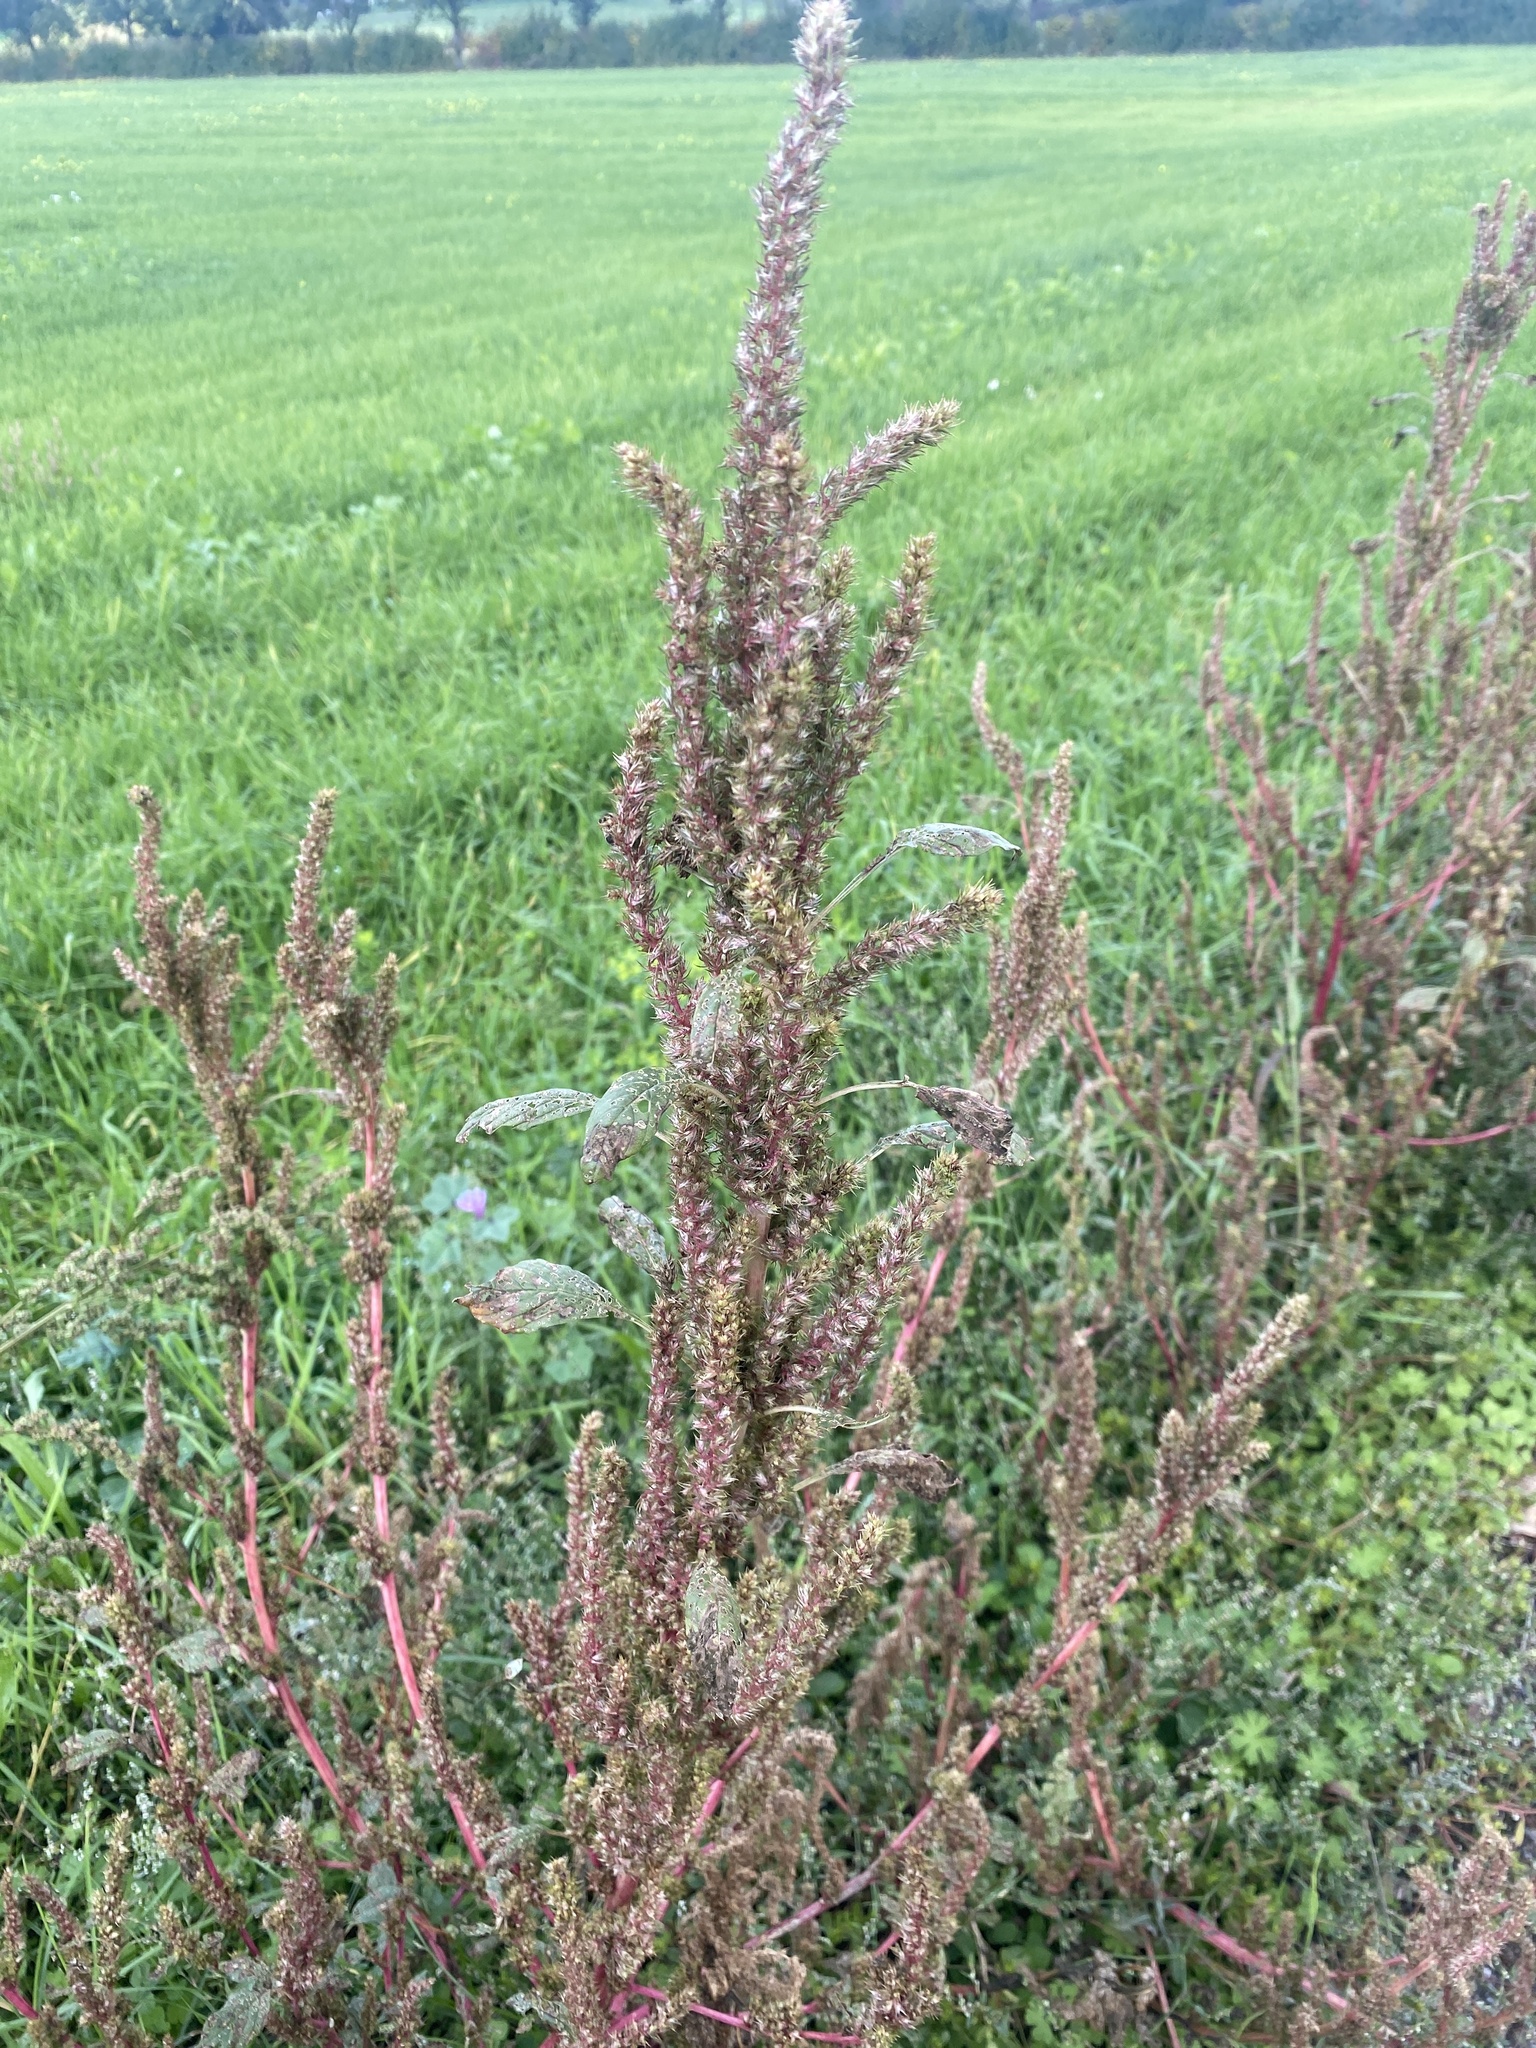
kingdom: Plantae
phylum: Tracheophyta
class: Magnoliopsida
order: Caryophyllales
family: Amaranthaceae
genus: Amaranthus
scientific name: Amaranthus hybridus
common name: Green amaranth
